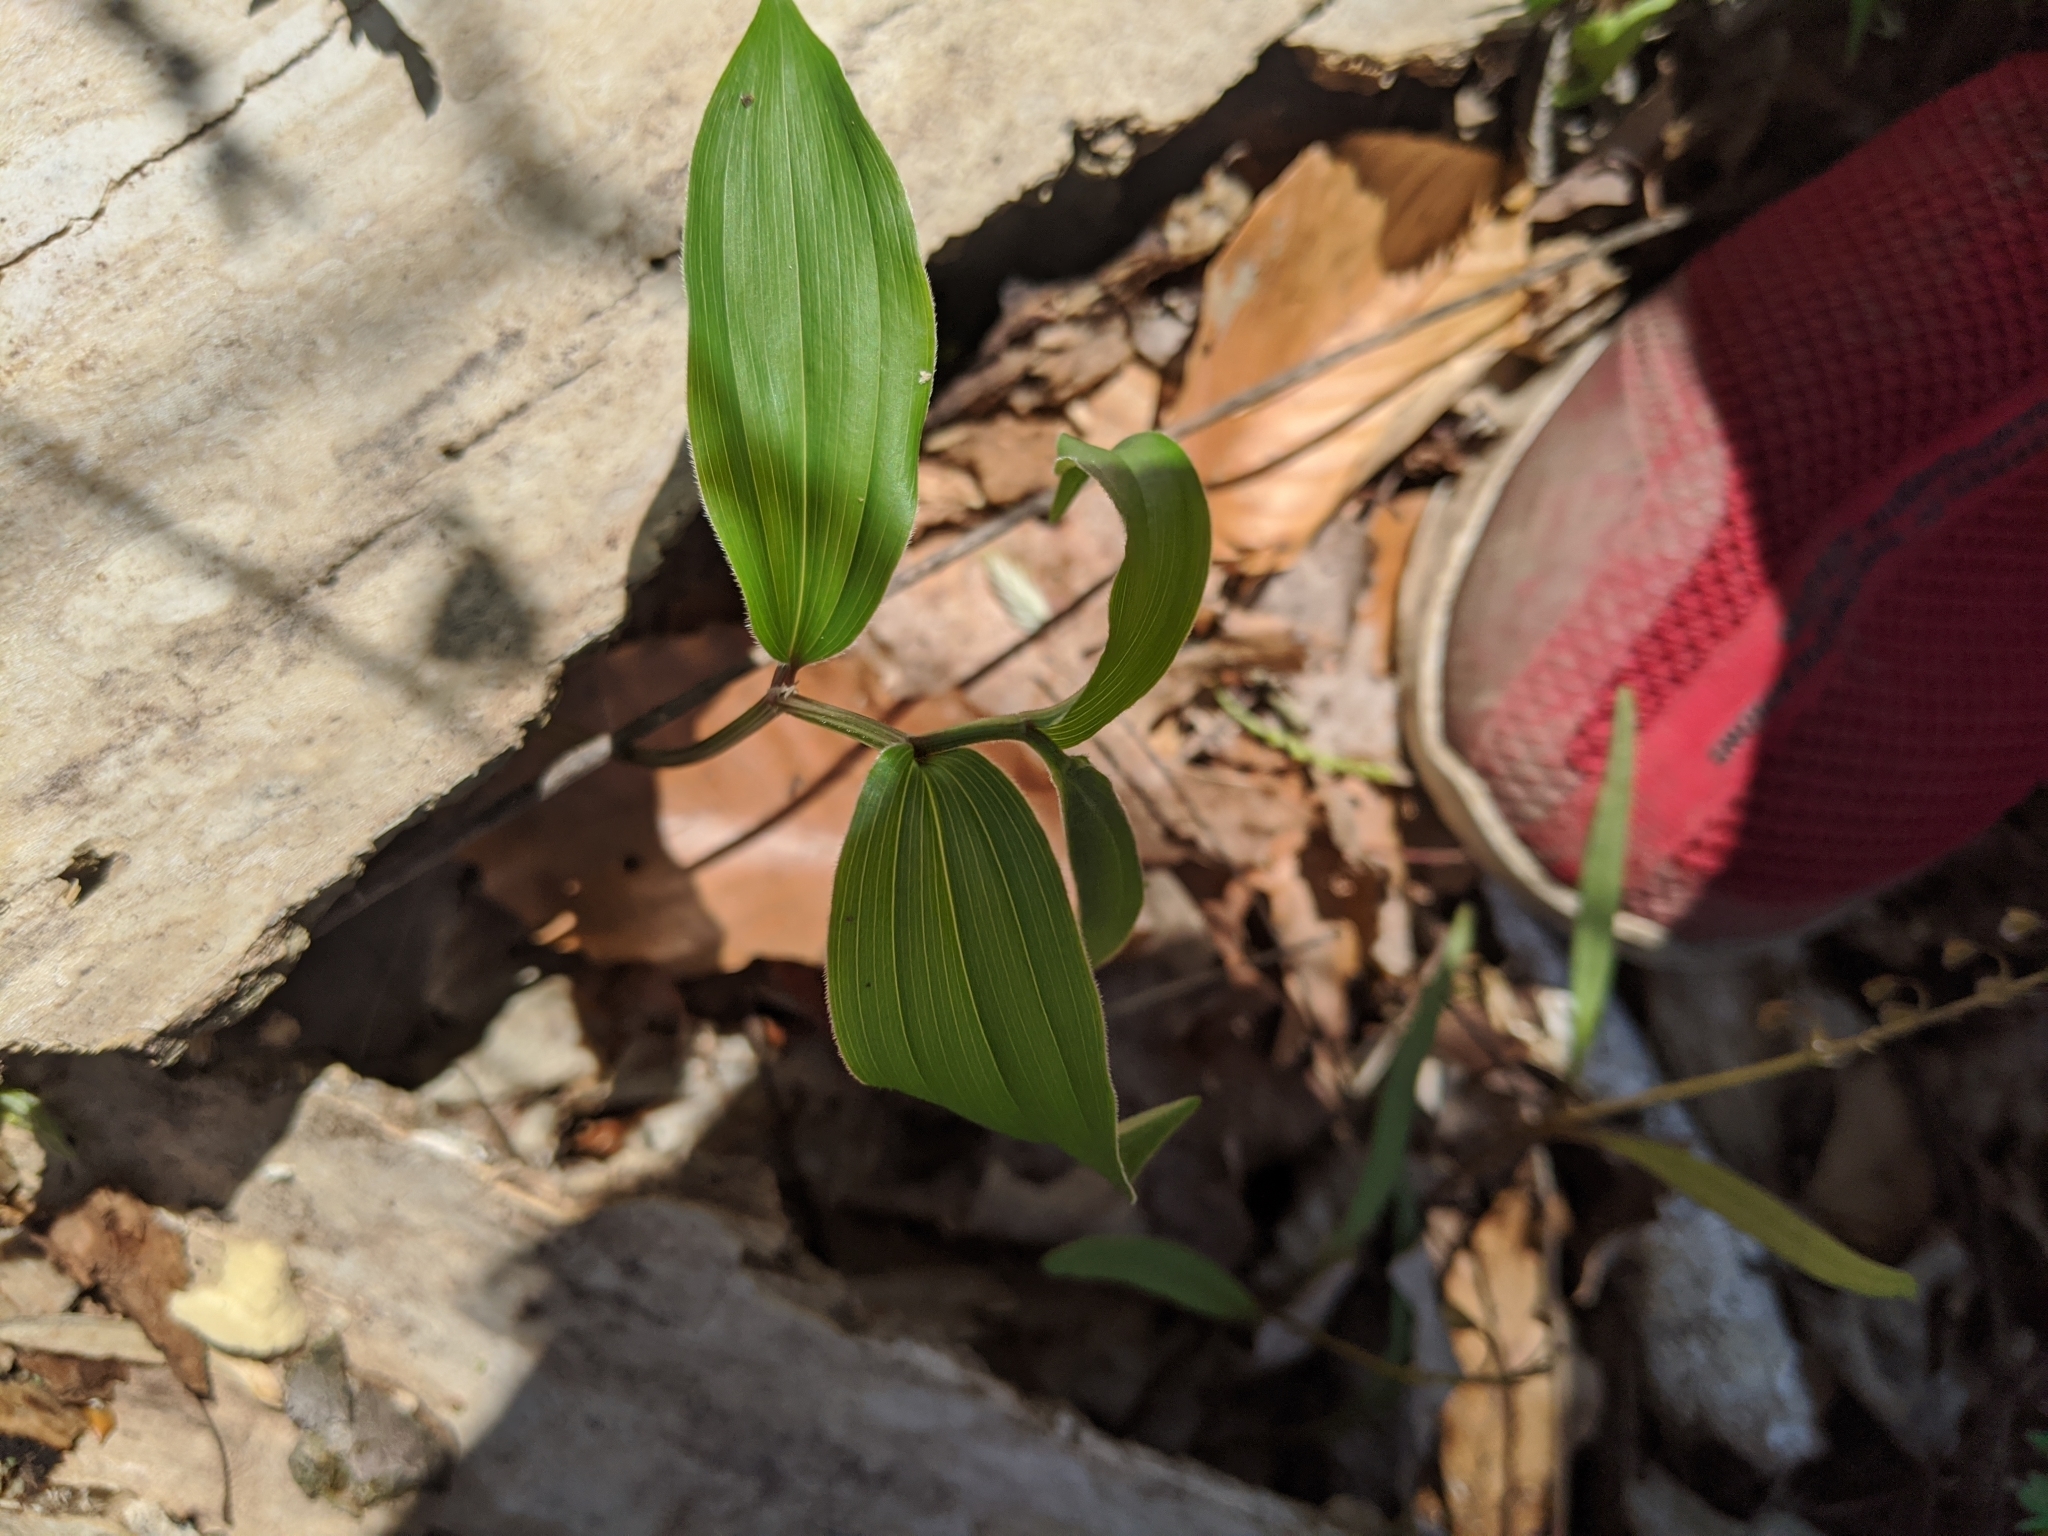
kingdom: Plantae
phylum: Tracheophyta
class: Liliopsida
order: Asparagales
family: Asparagaceae
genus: Maianthemum
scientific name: Maianthemum racemosum
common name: False spikenard
